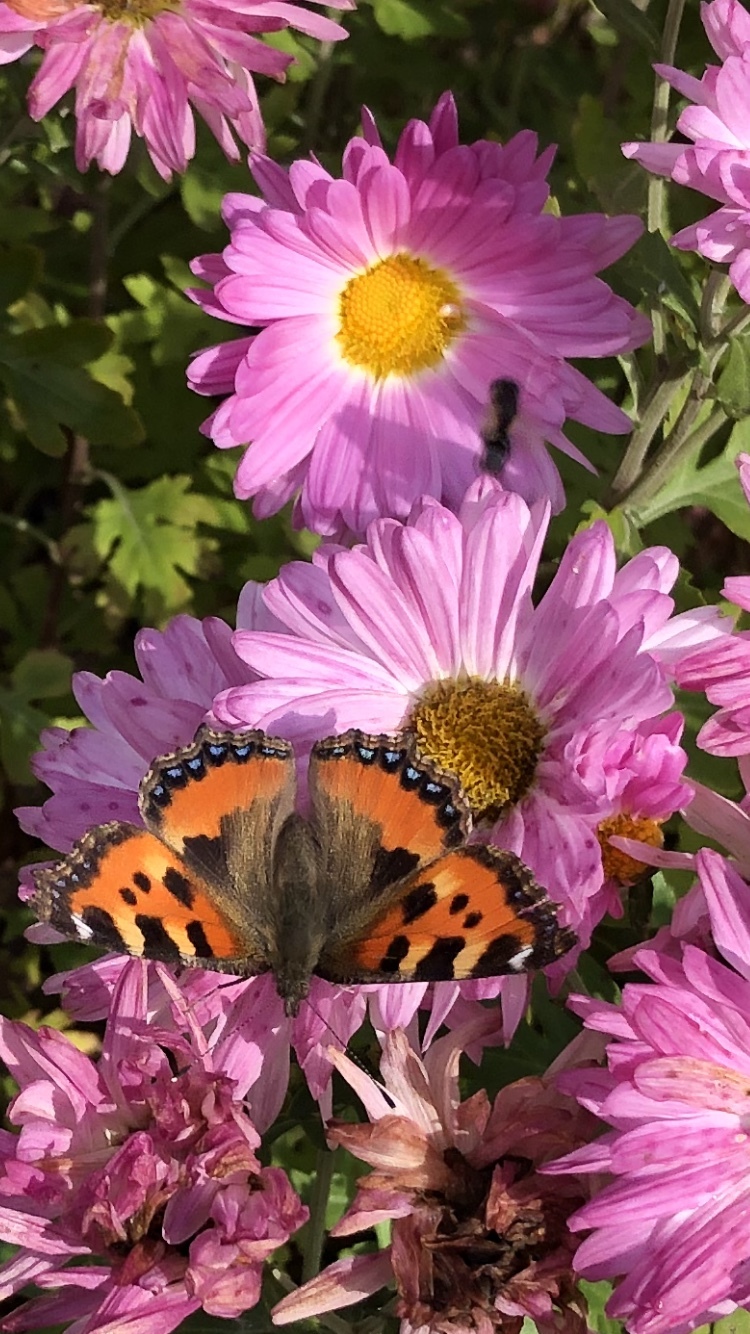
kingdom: Animalia
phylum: Arthropoda
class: Insecta
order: Lepidoptera
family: Nymphalidae
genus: Aglais
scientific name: Aglais urticae
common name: Small tortoiseshell
